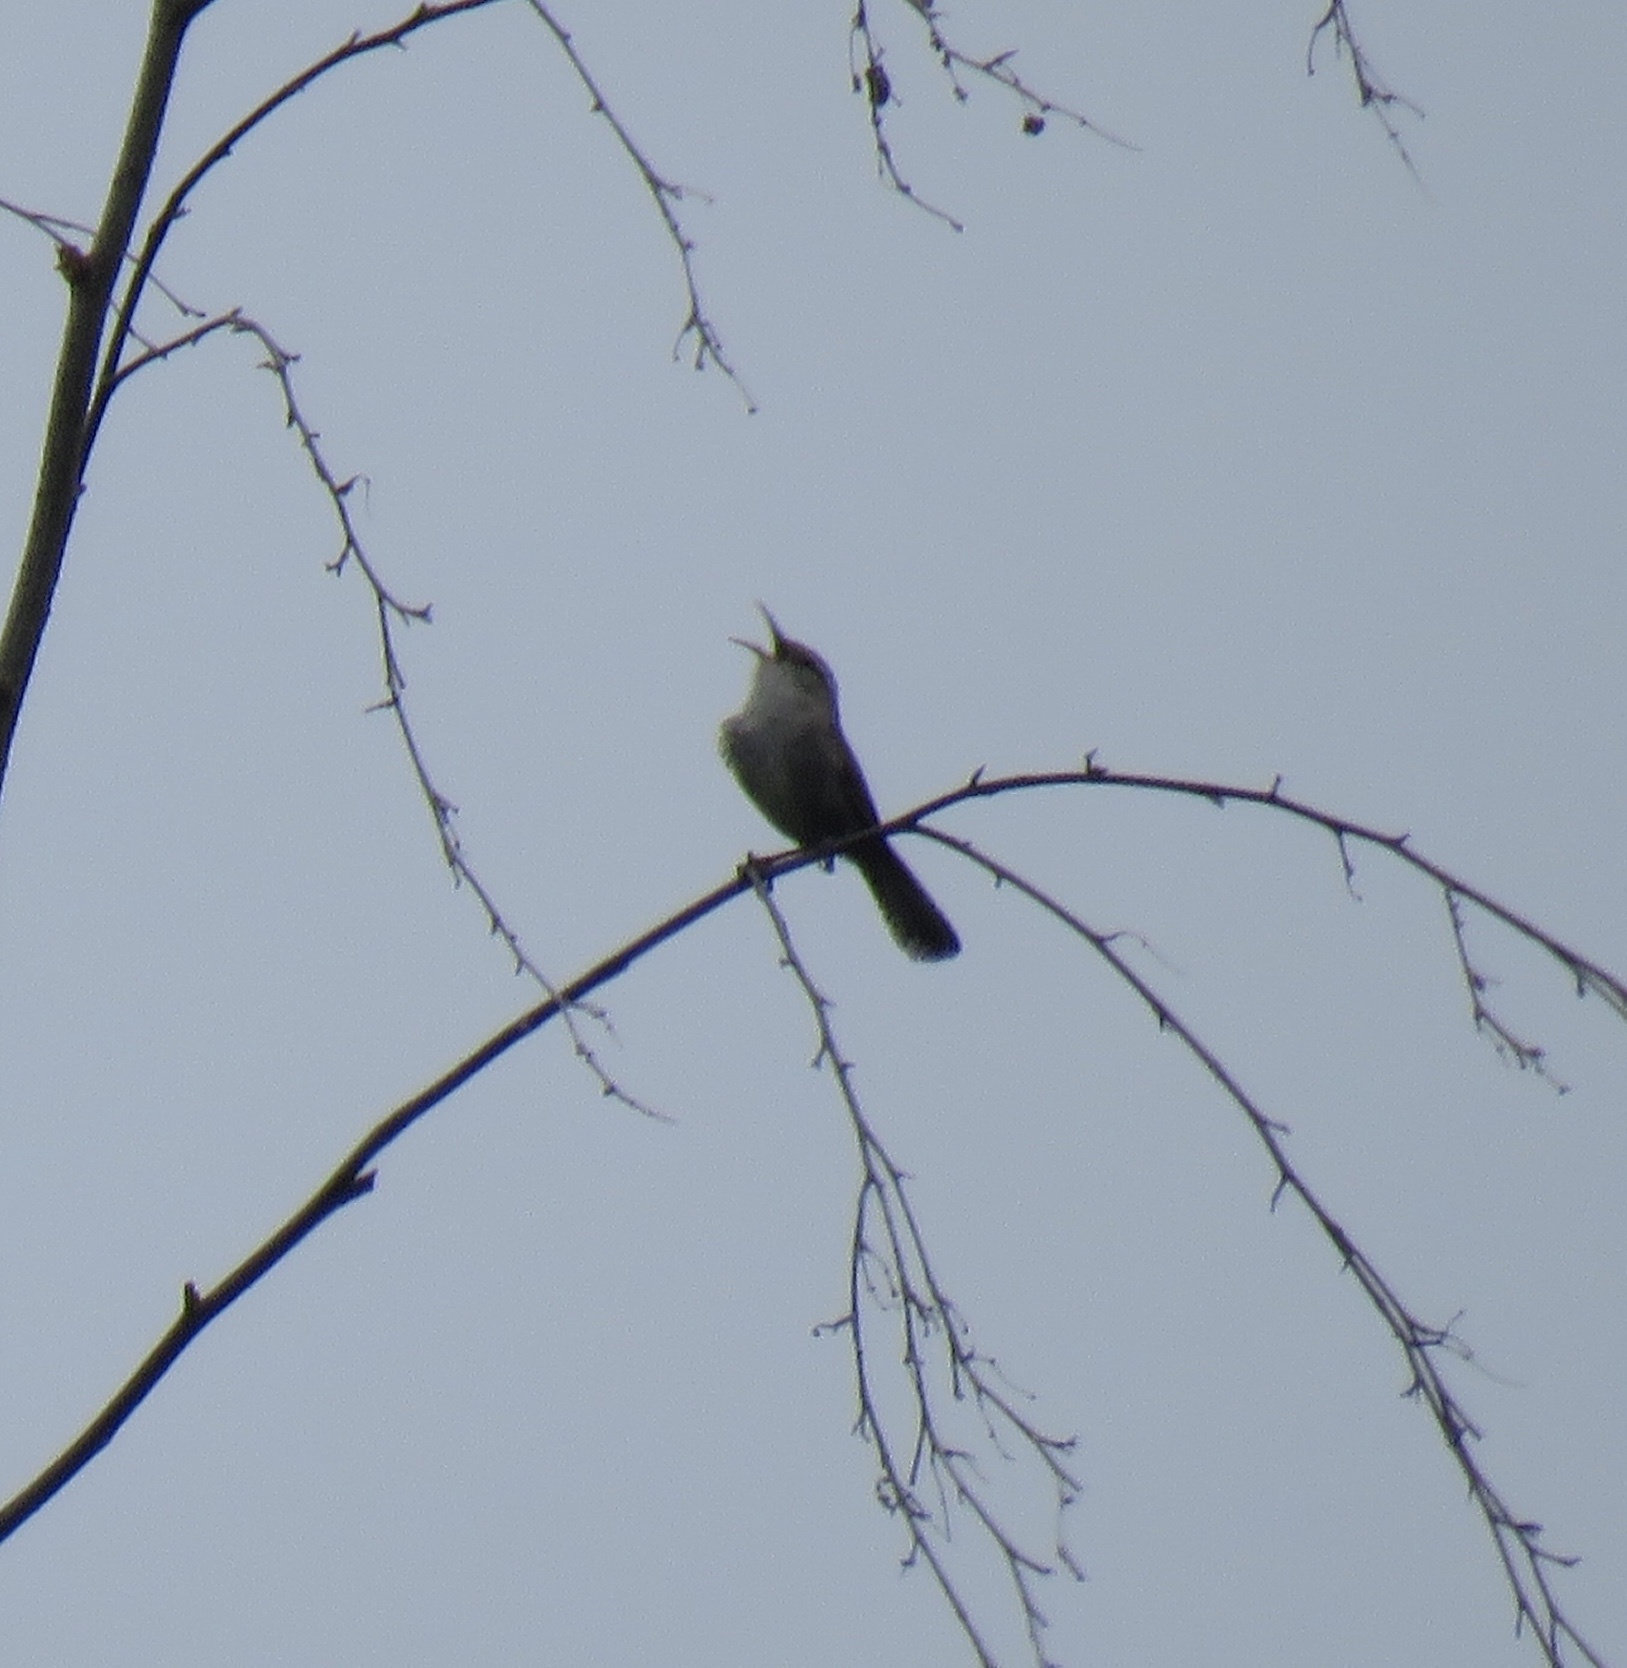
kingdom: Animalia
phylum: Chordata
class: Aves
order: Passeriformes
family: Troglodytidae
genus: Thryomanes
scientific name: Thryomanes bewickii
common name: Bewick's wren
